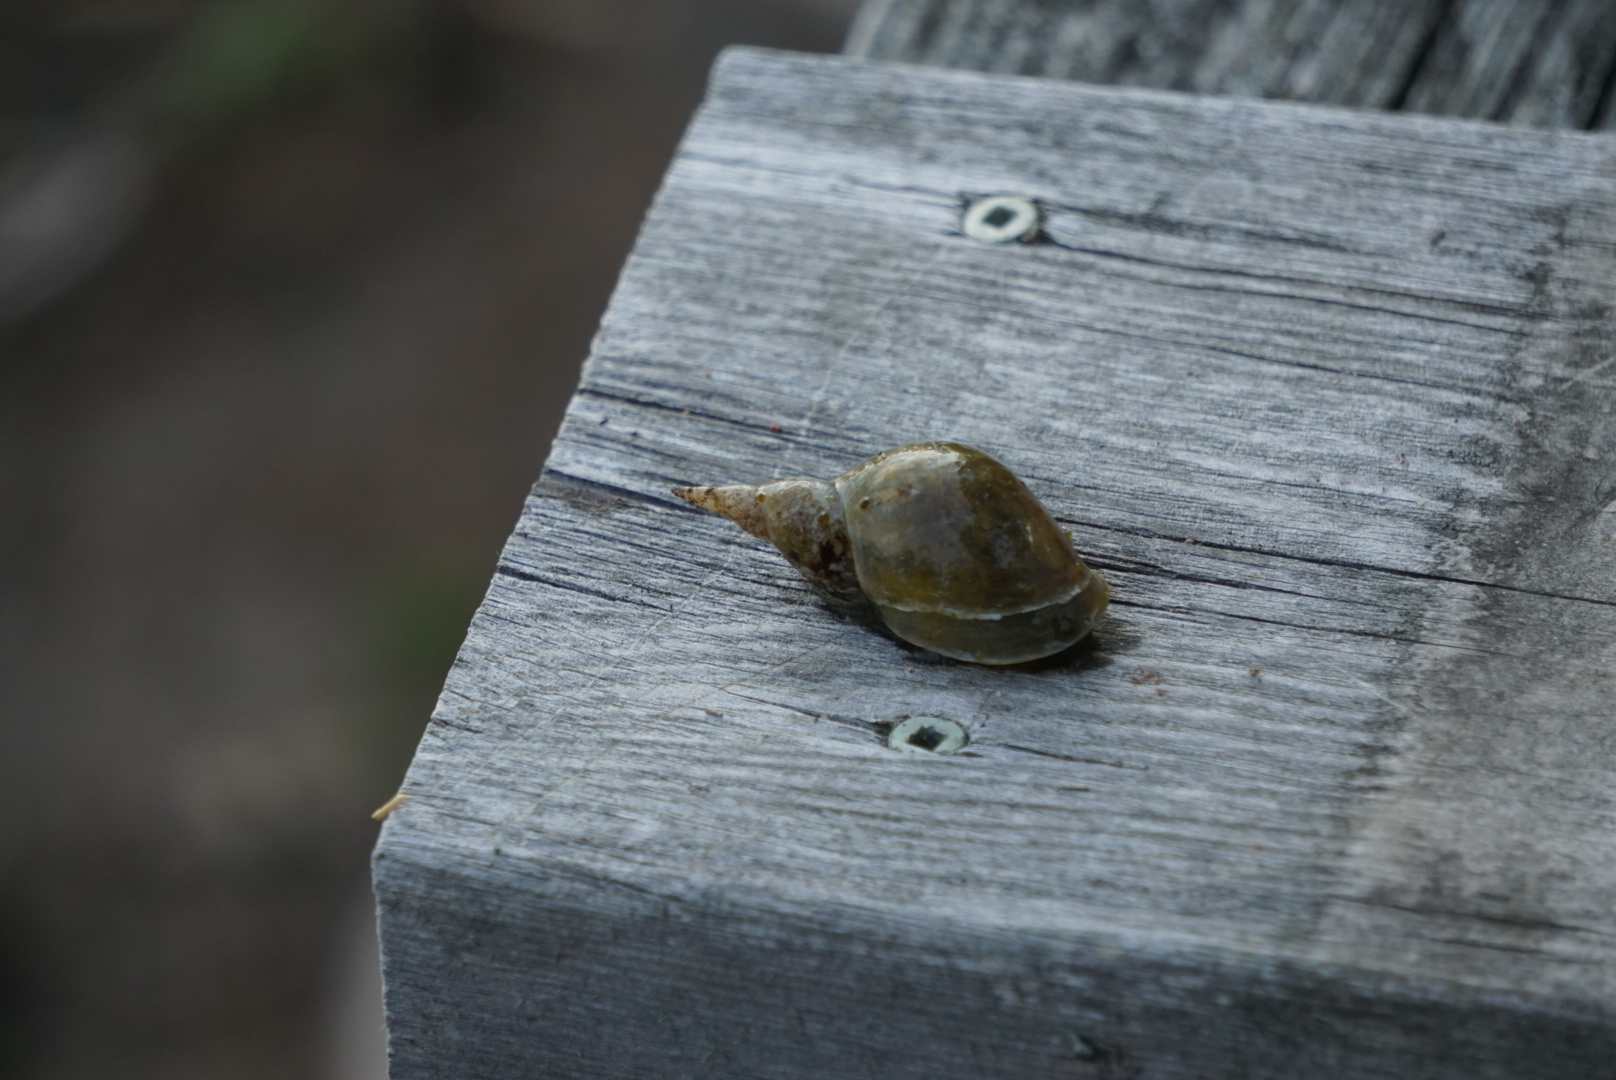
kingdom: Animalia
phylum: Mollusca
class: Gastropoda
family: Lymnaeidae
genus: Lymnaea
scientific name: Lymnaea stagnalis
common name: Great pond snail
